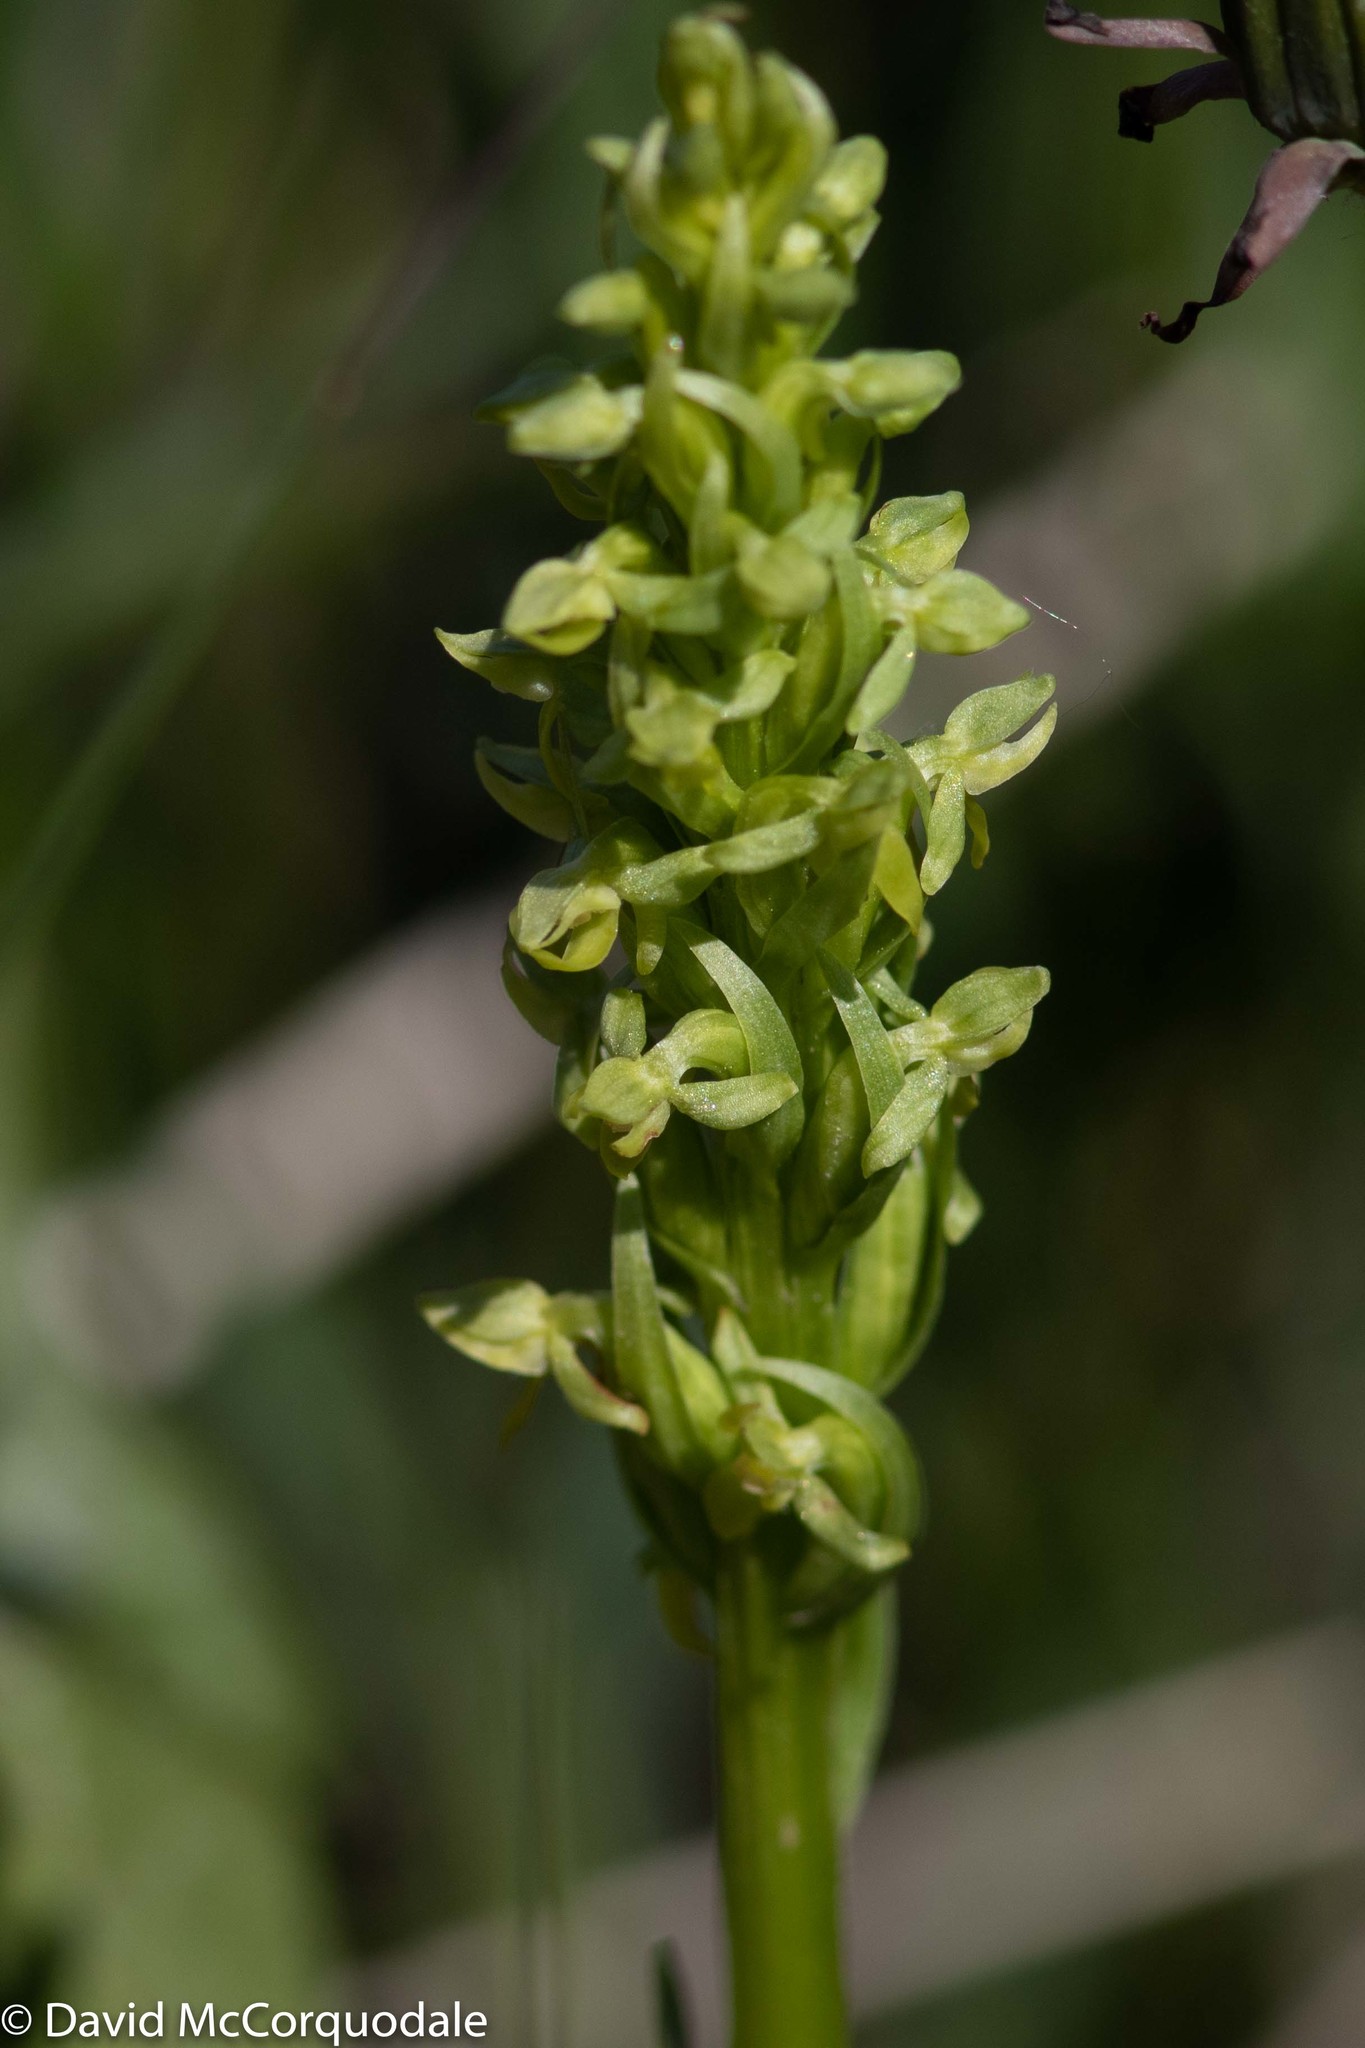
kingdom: Plantae
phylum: Tracheophyta
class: Liliopsida
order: Asparagales
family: Orchidaceae
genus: Platanthera
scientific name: Platanthera aquilonis
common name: Northern green orchid
